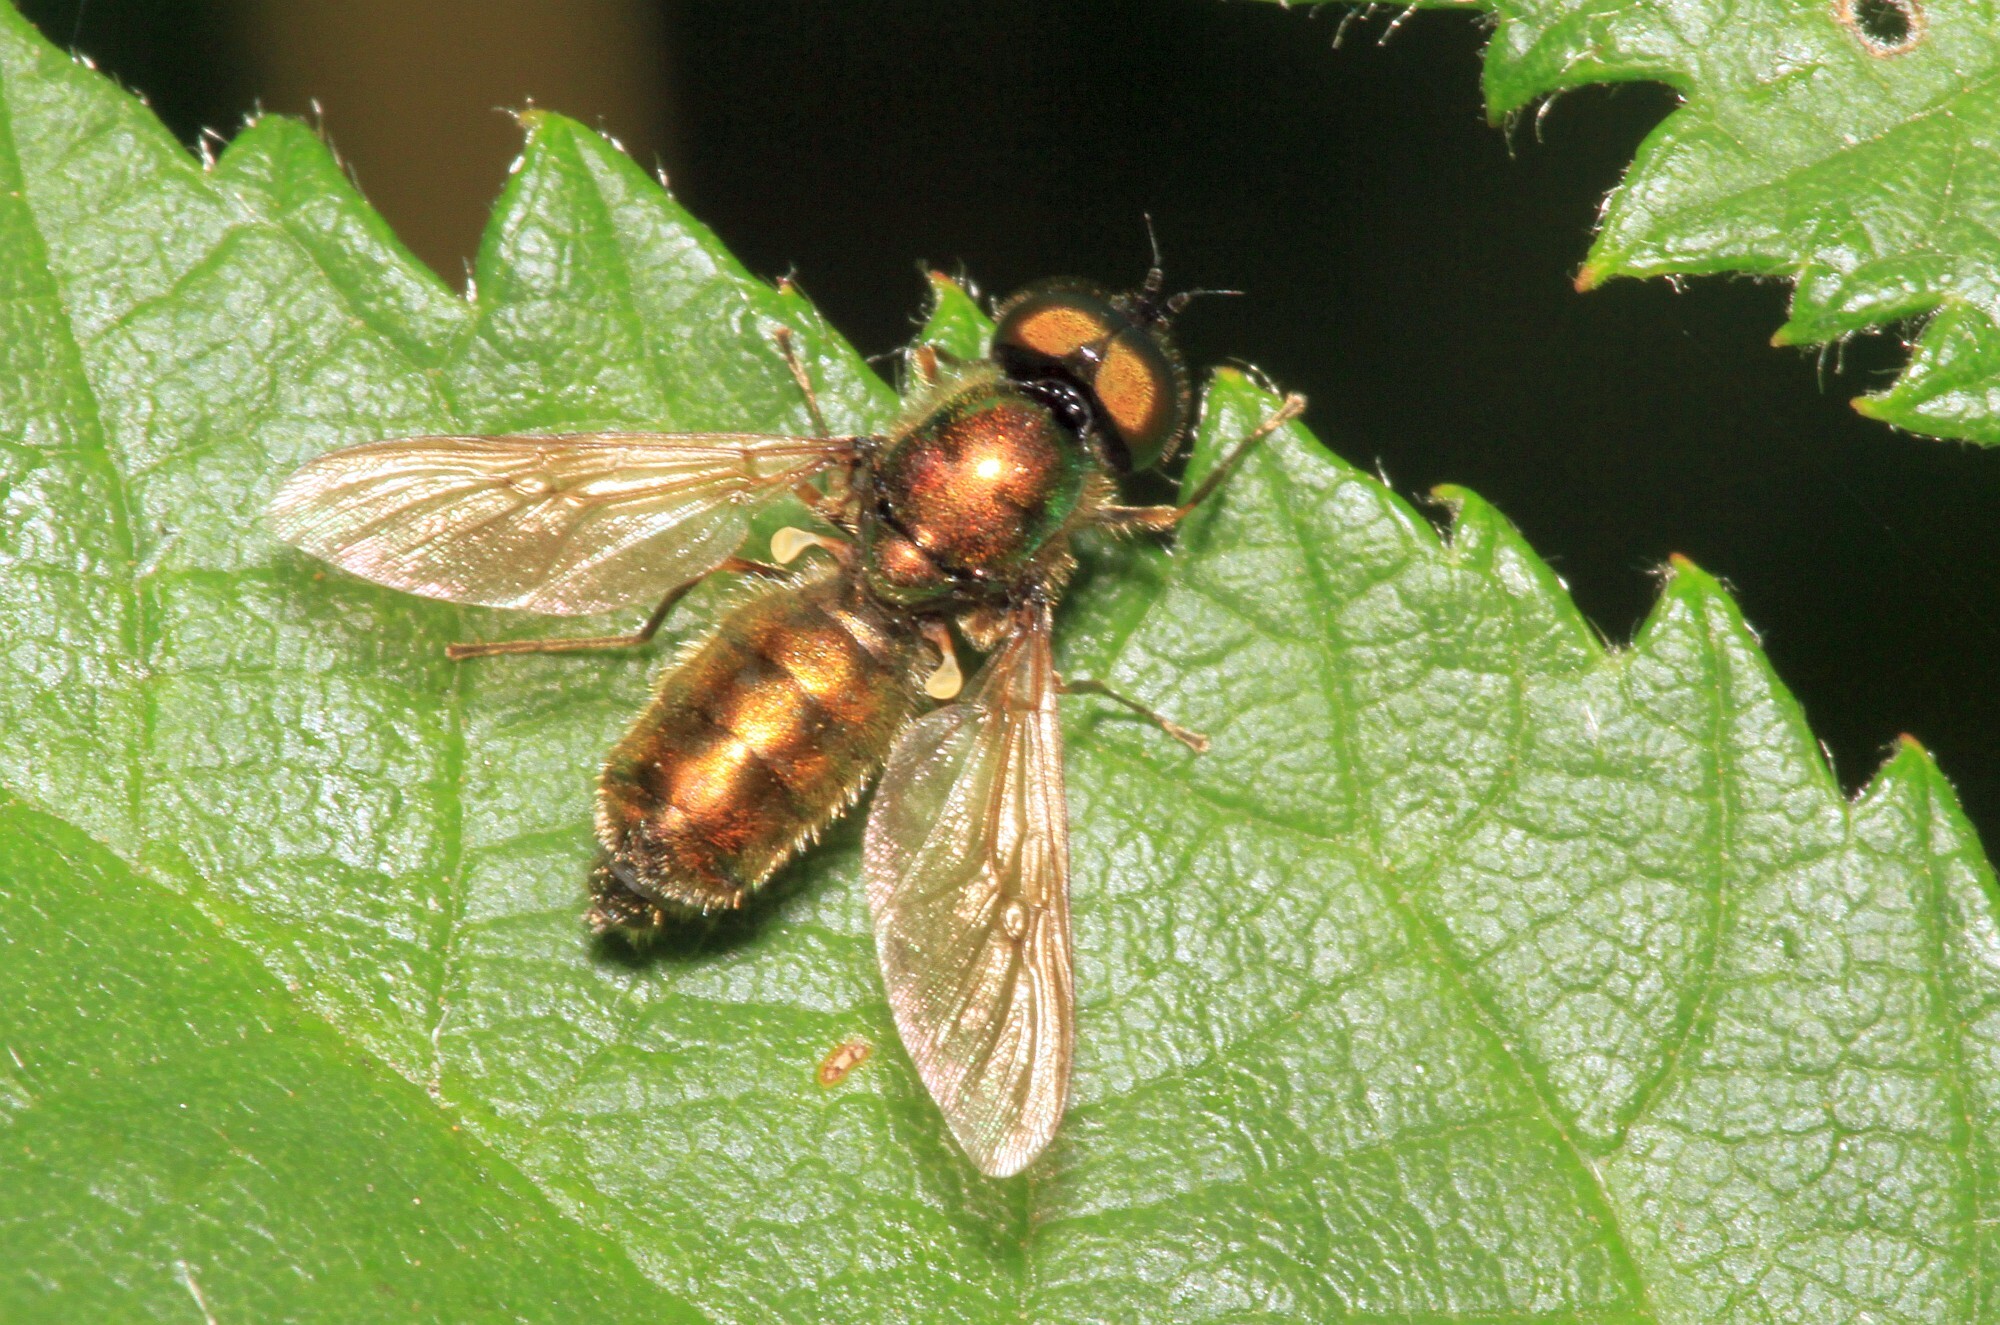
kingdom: Animalia
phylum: Arthropoda
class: Insecta
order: Diptera
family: Stratiomyidae
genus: Chloromyia
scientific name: Chloromyia formosa
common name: Soldier fly
